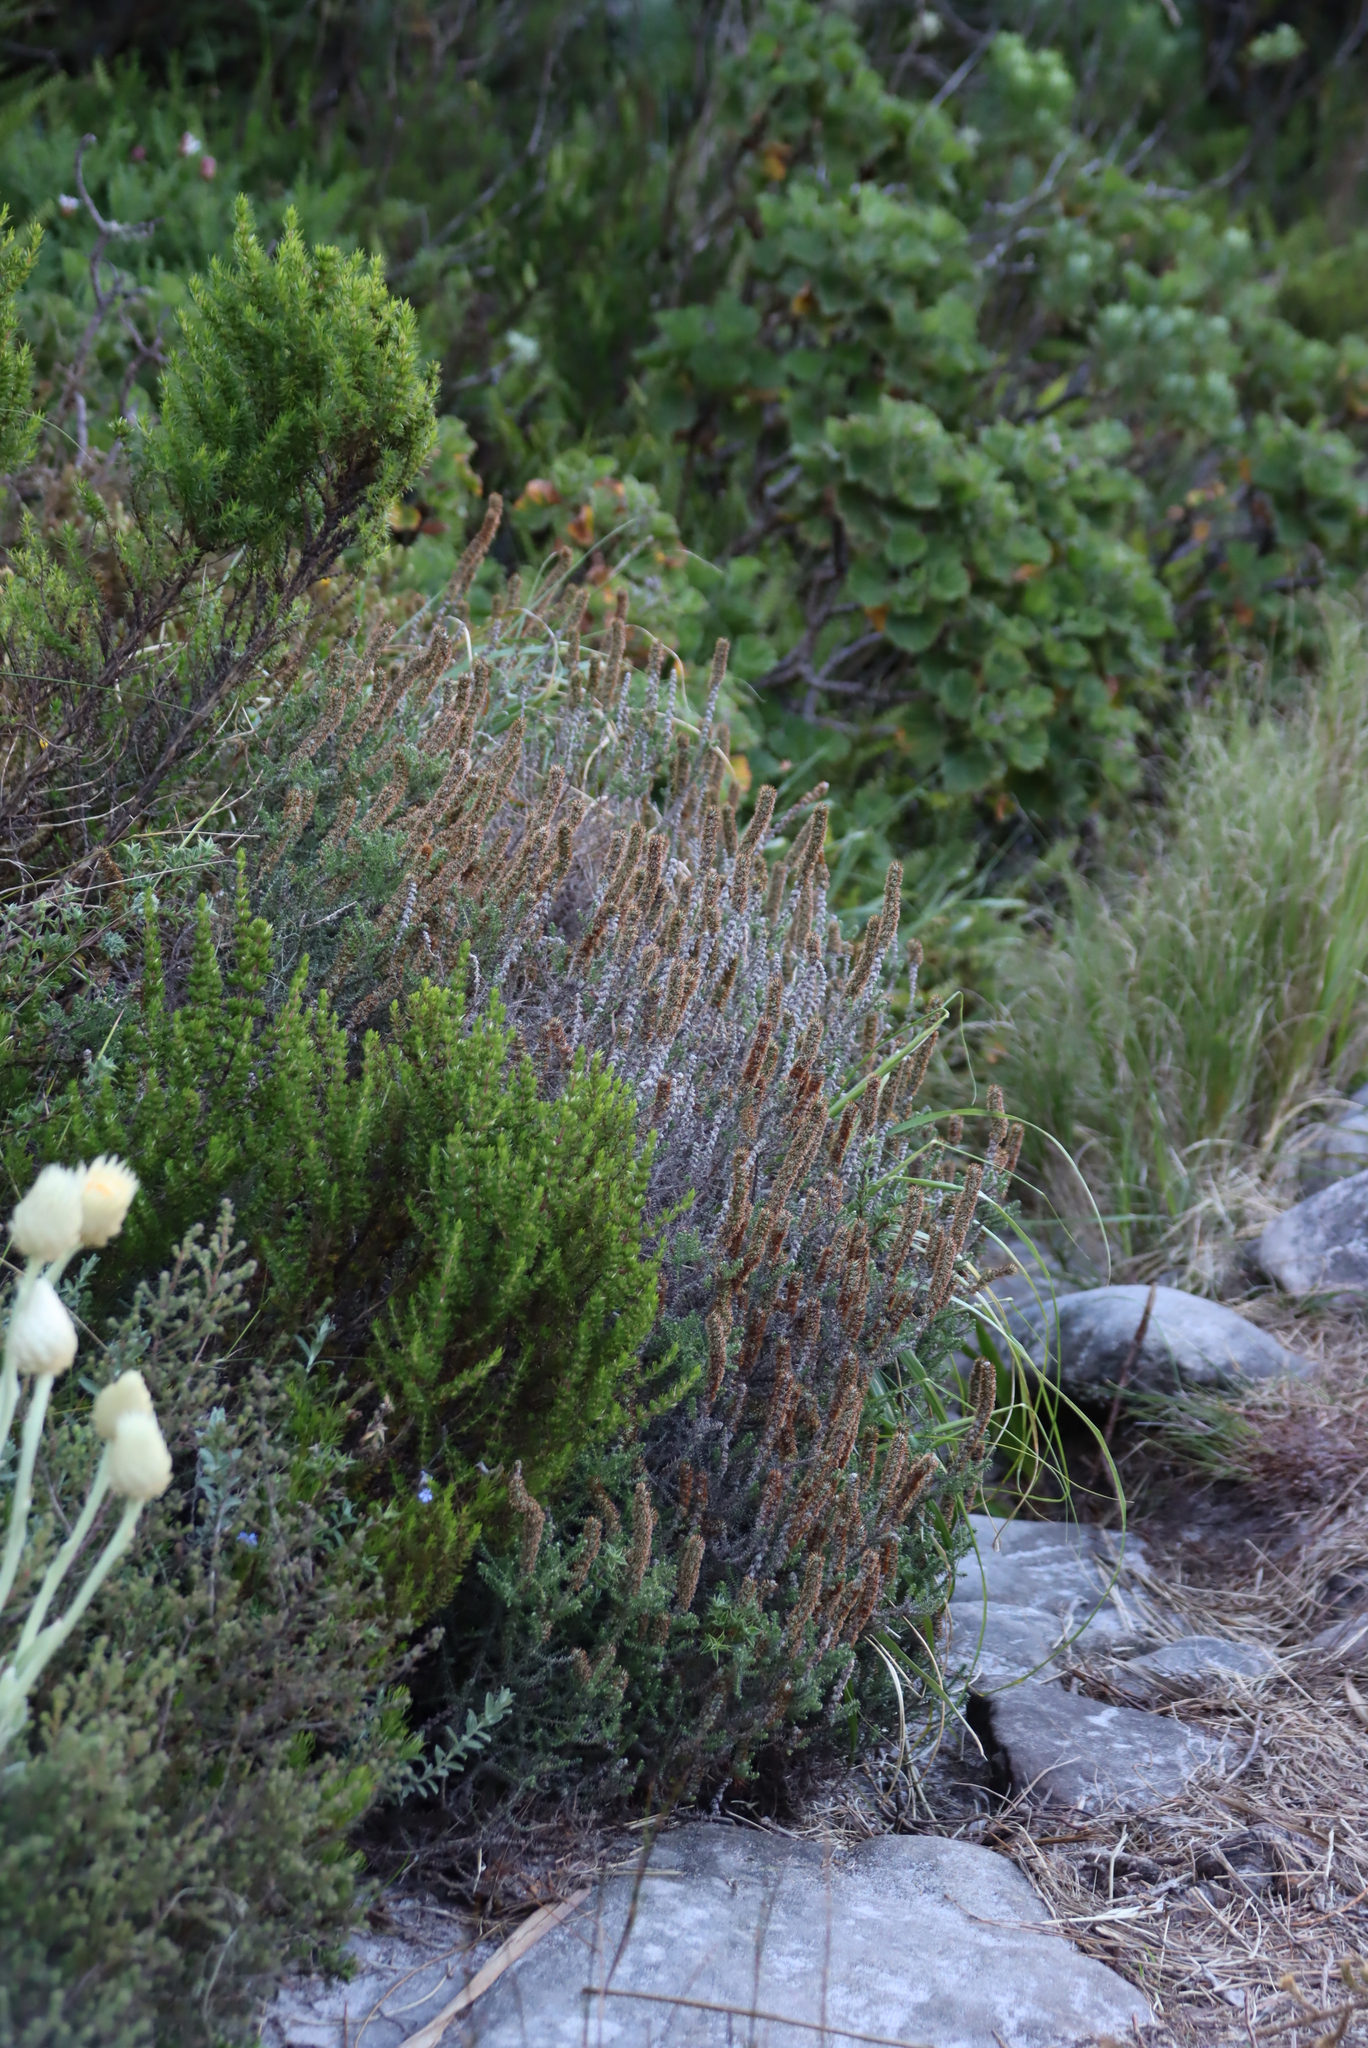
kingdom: Plantae
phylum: Tracheophyta
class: Magnoliopsida
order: Asterales
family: Asteraceae
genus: Seriphium
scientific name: Seriphium plumosum
